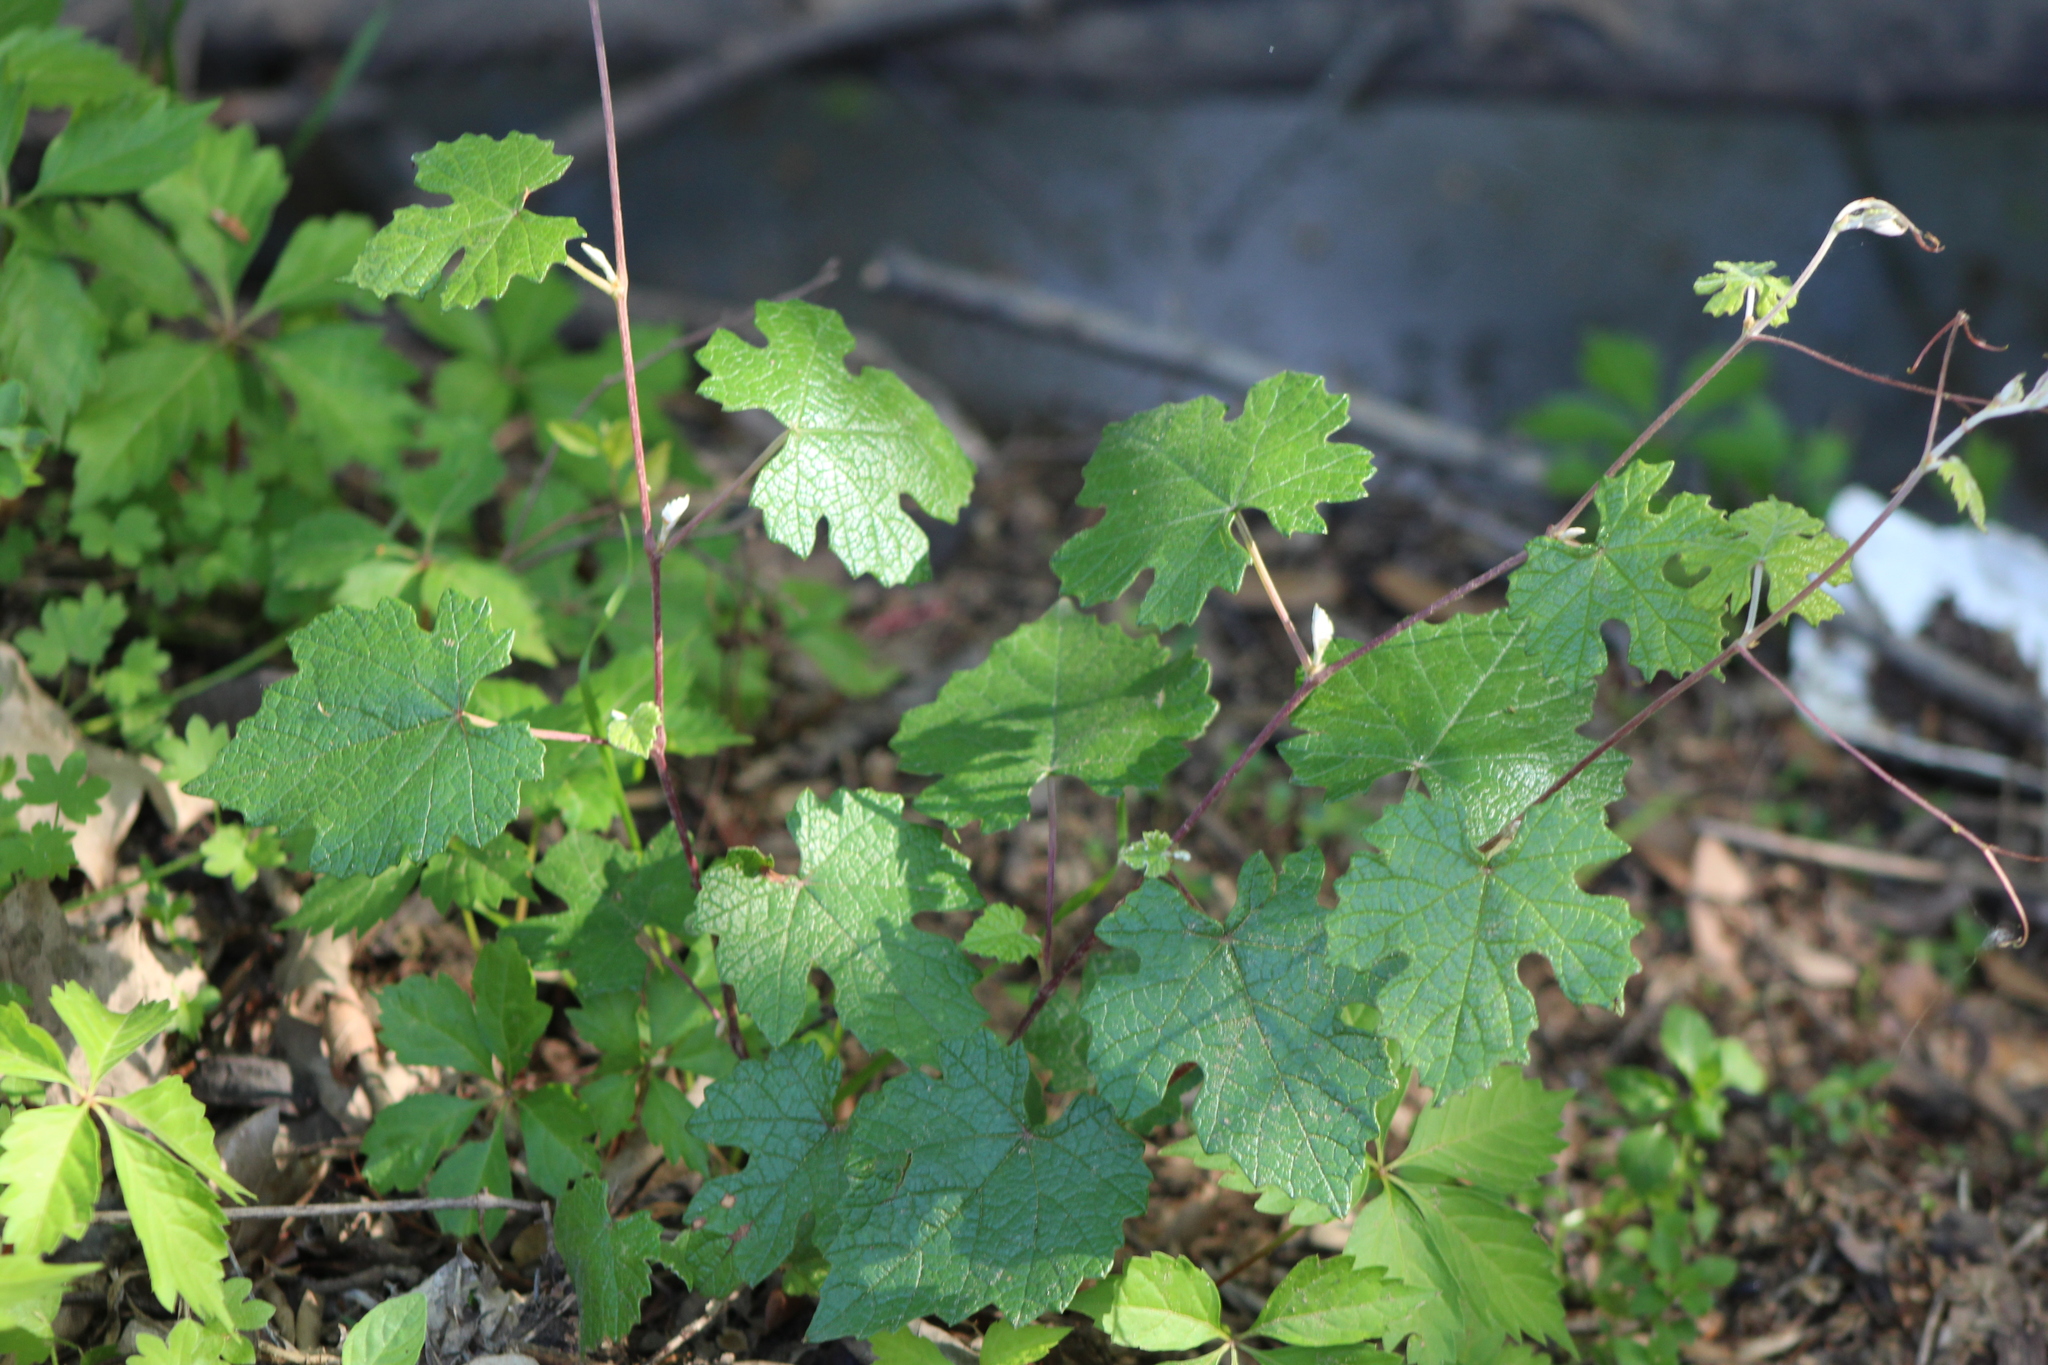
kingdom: Plantae
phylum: Tracheophyta
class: Magnoliopsida
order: Vitales
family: Vitaceae
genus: Vitis
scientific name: Vitis mustangensis
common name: Mustang grape
